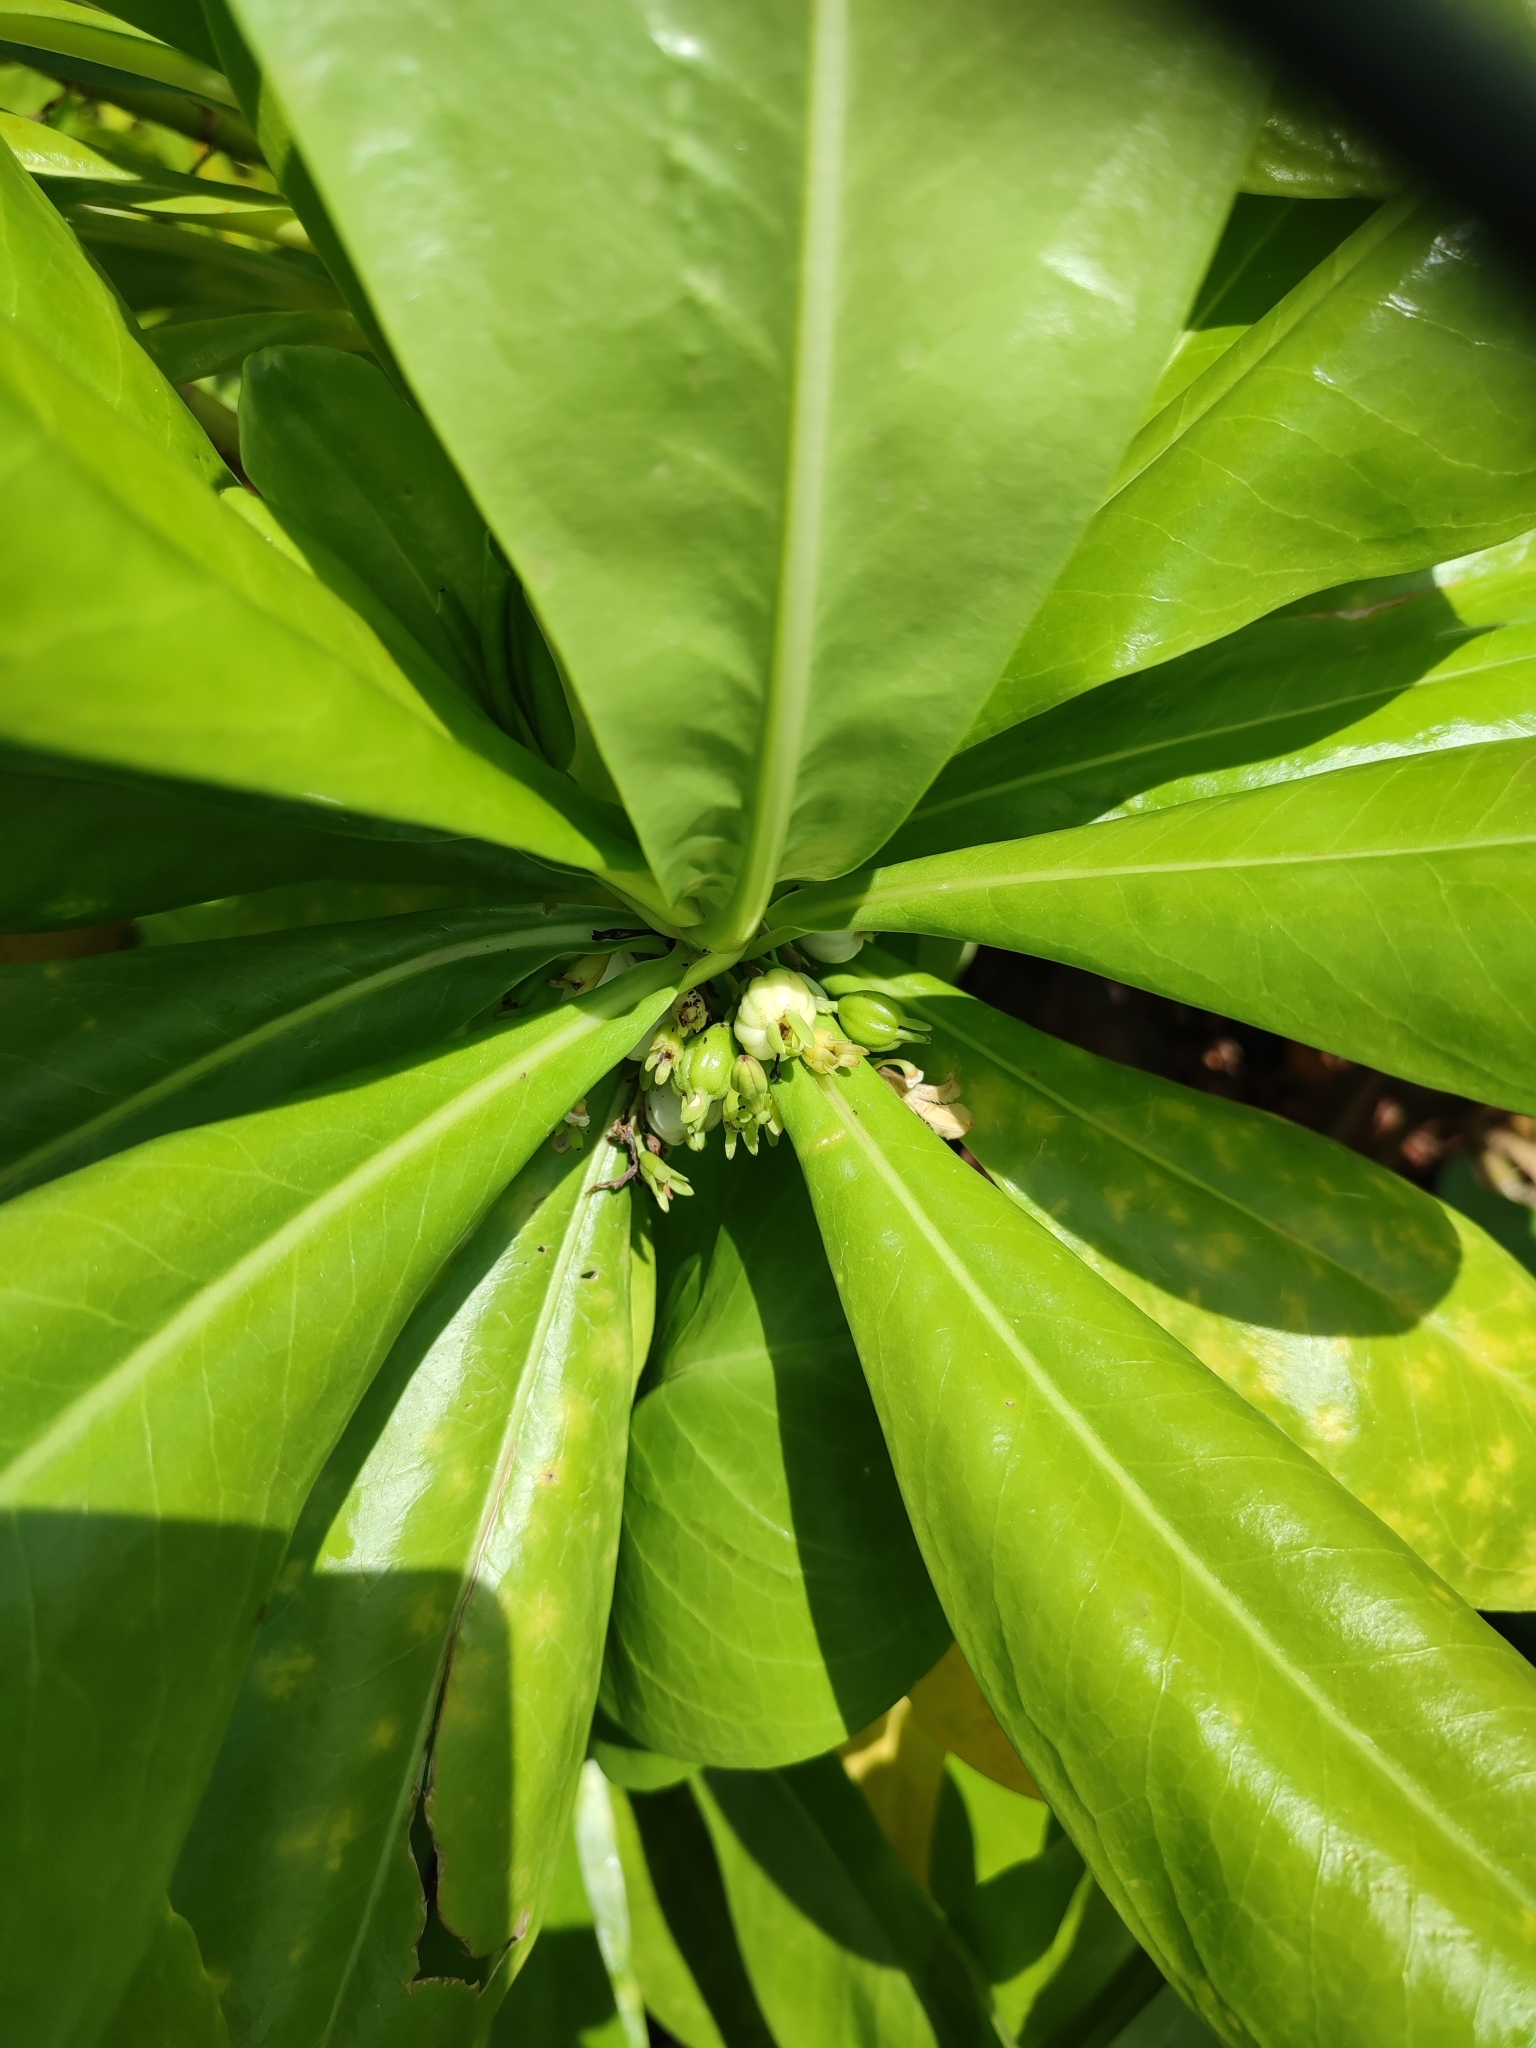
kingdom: Plantae
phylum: Tracheophyta
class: Magnoliopsida
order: Asterales
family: Goodeniaceae
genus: Scaevola
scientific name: Scaevola taccada
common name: Sea lettucetree
